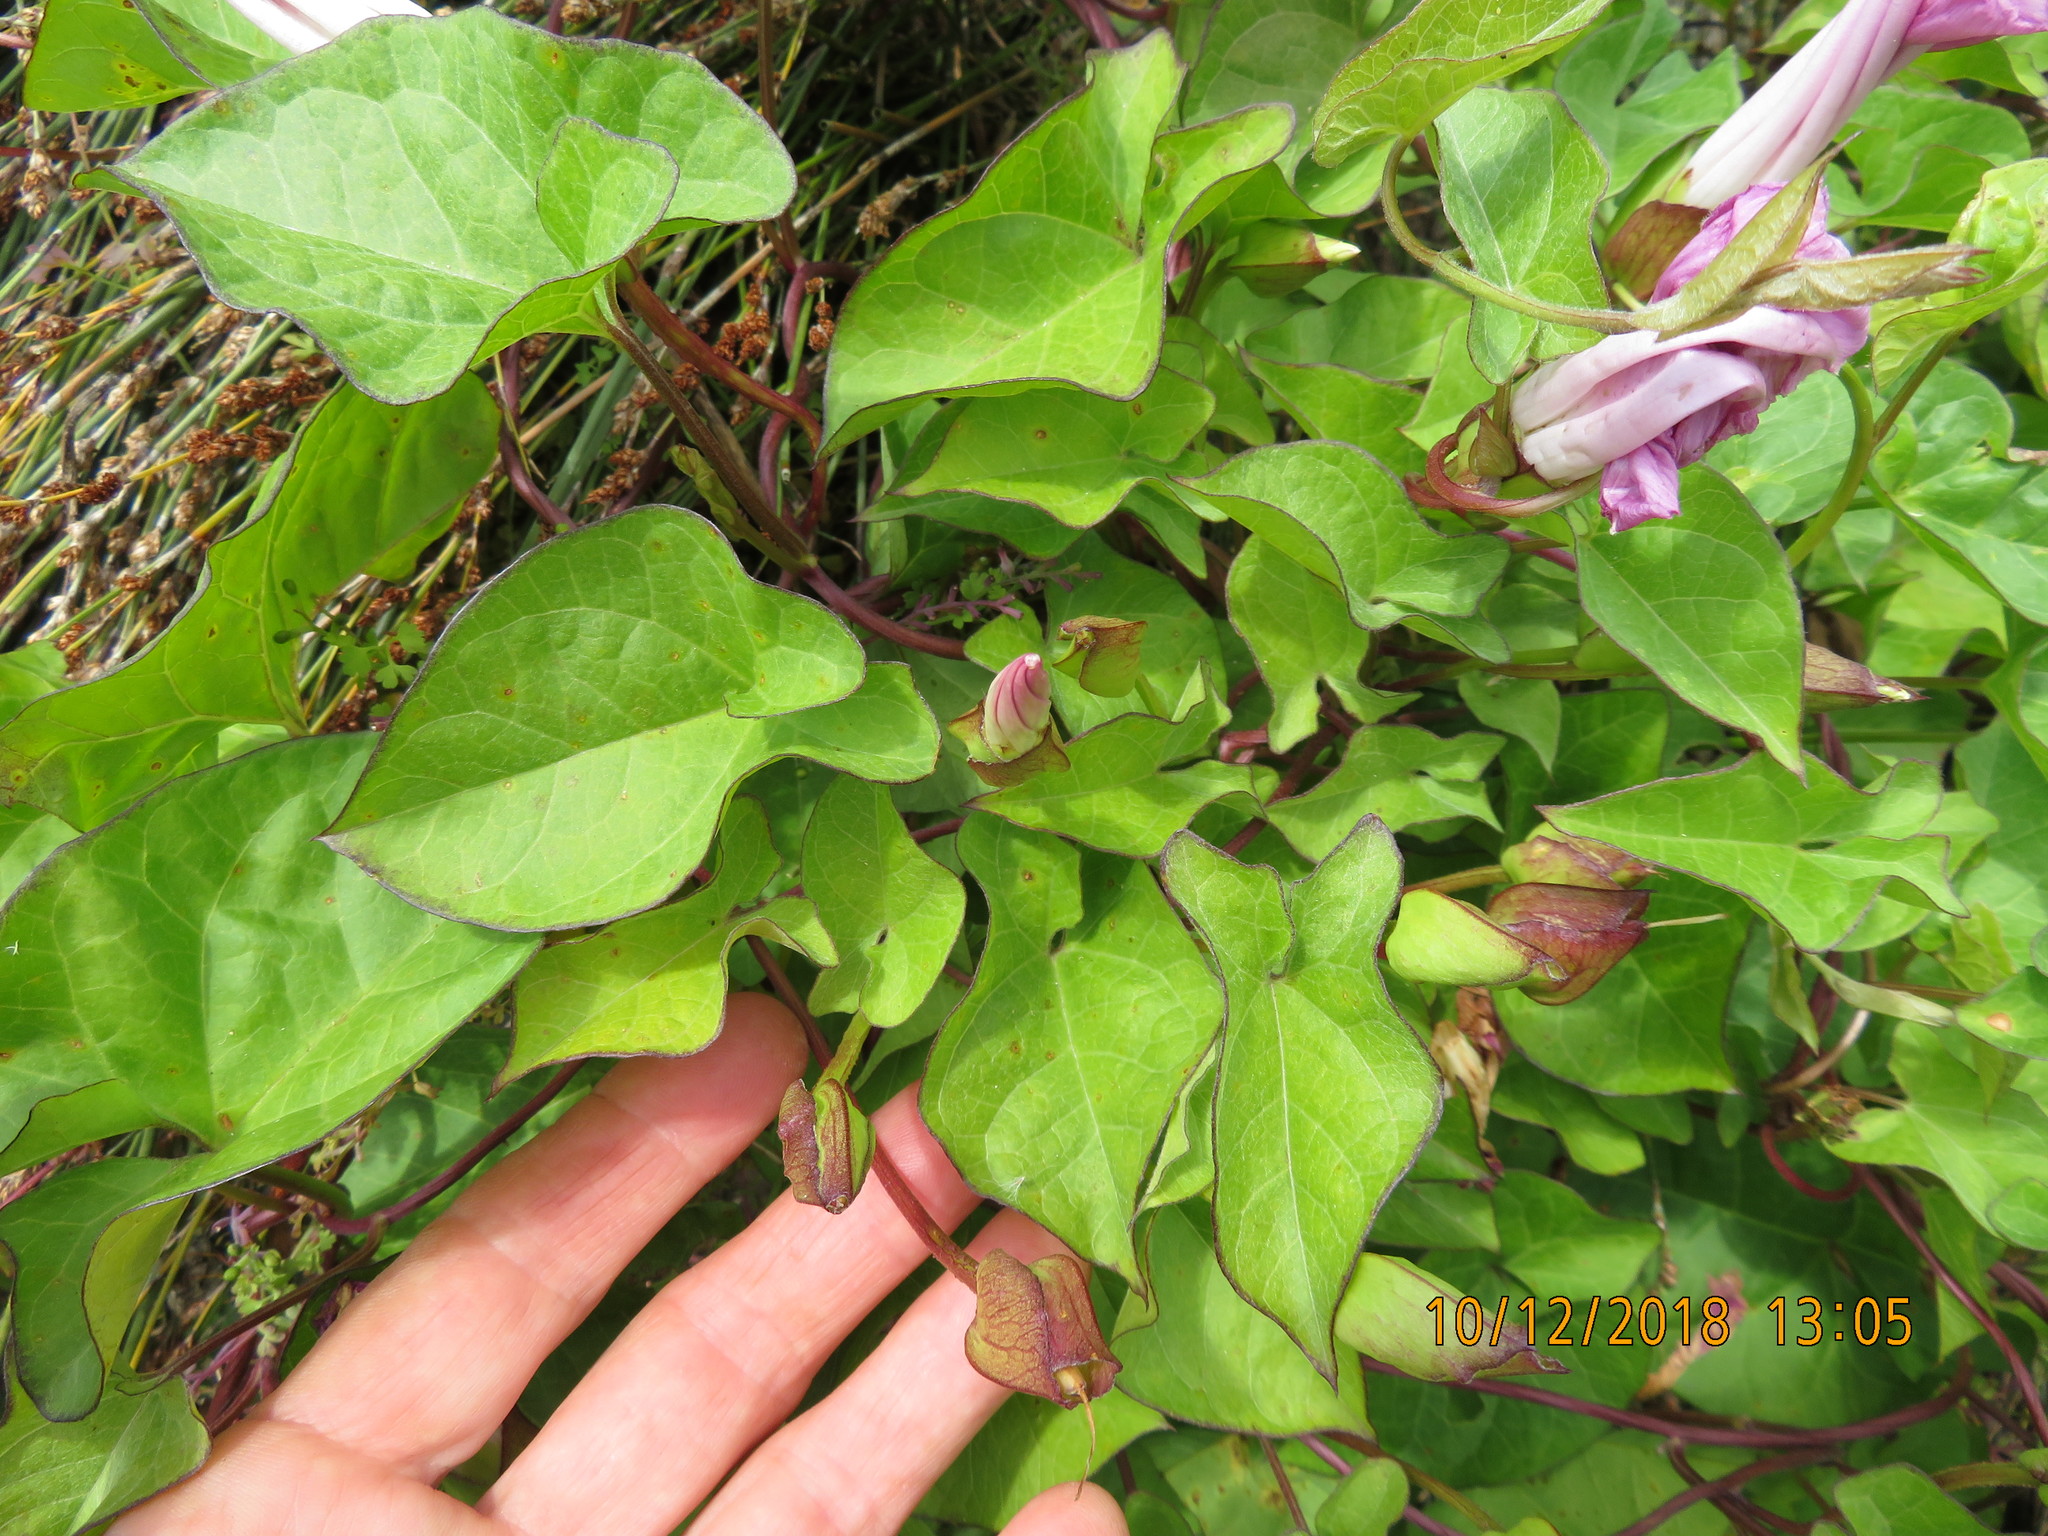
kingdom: Plantae
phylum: Tracheophyta
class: Magnoliopsida
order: Solanales
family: Convolvulaceae
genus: Calystegia
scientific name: Calystegia sepium
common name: Hedge bindweed
